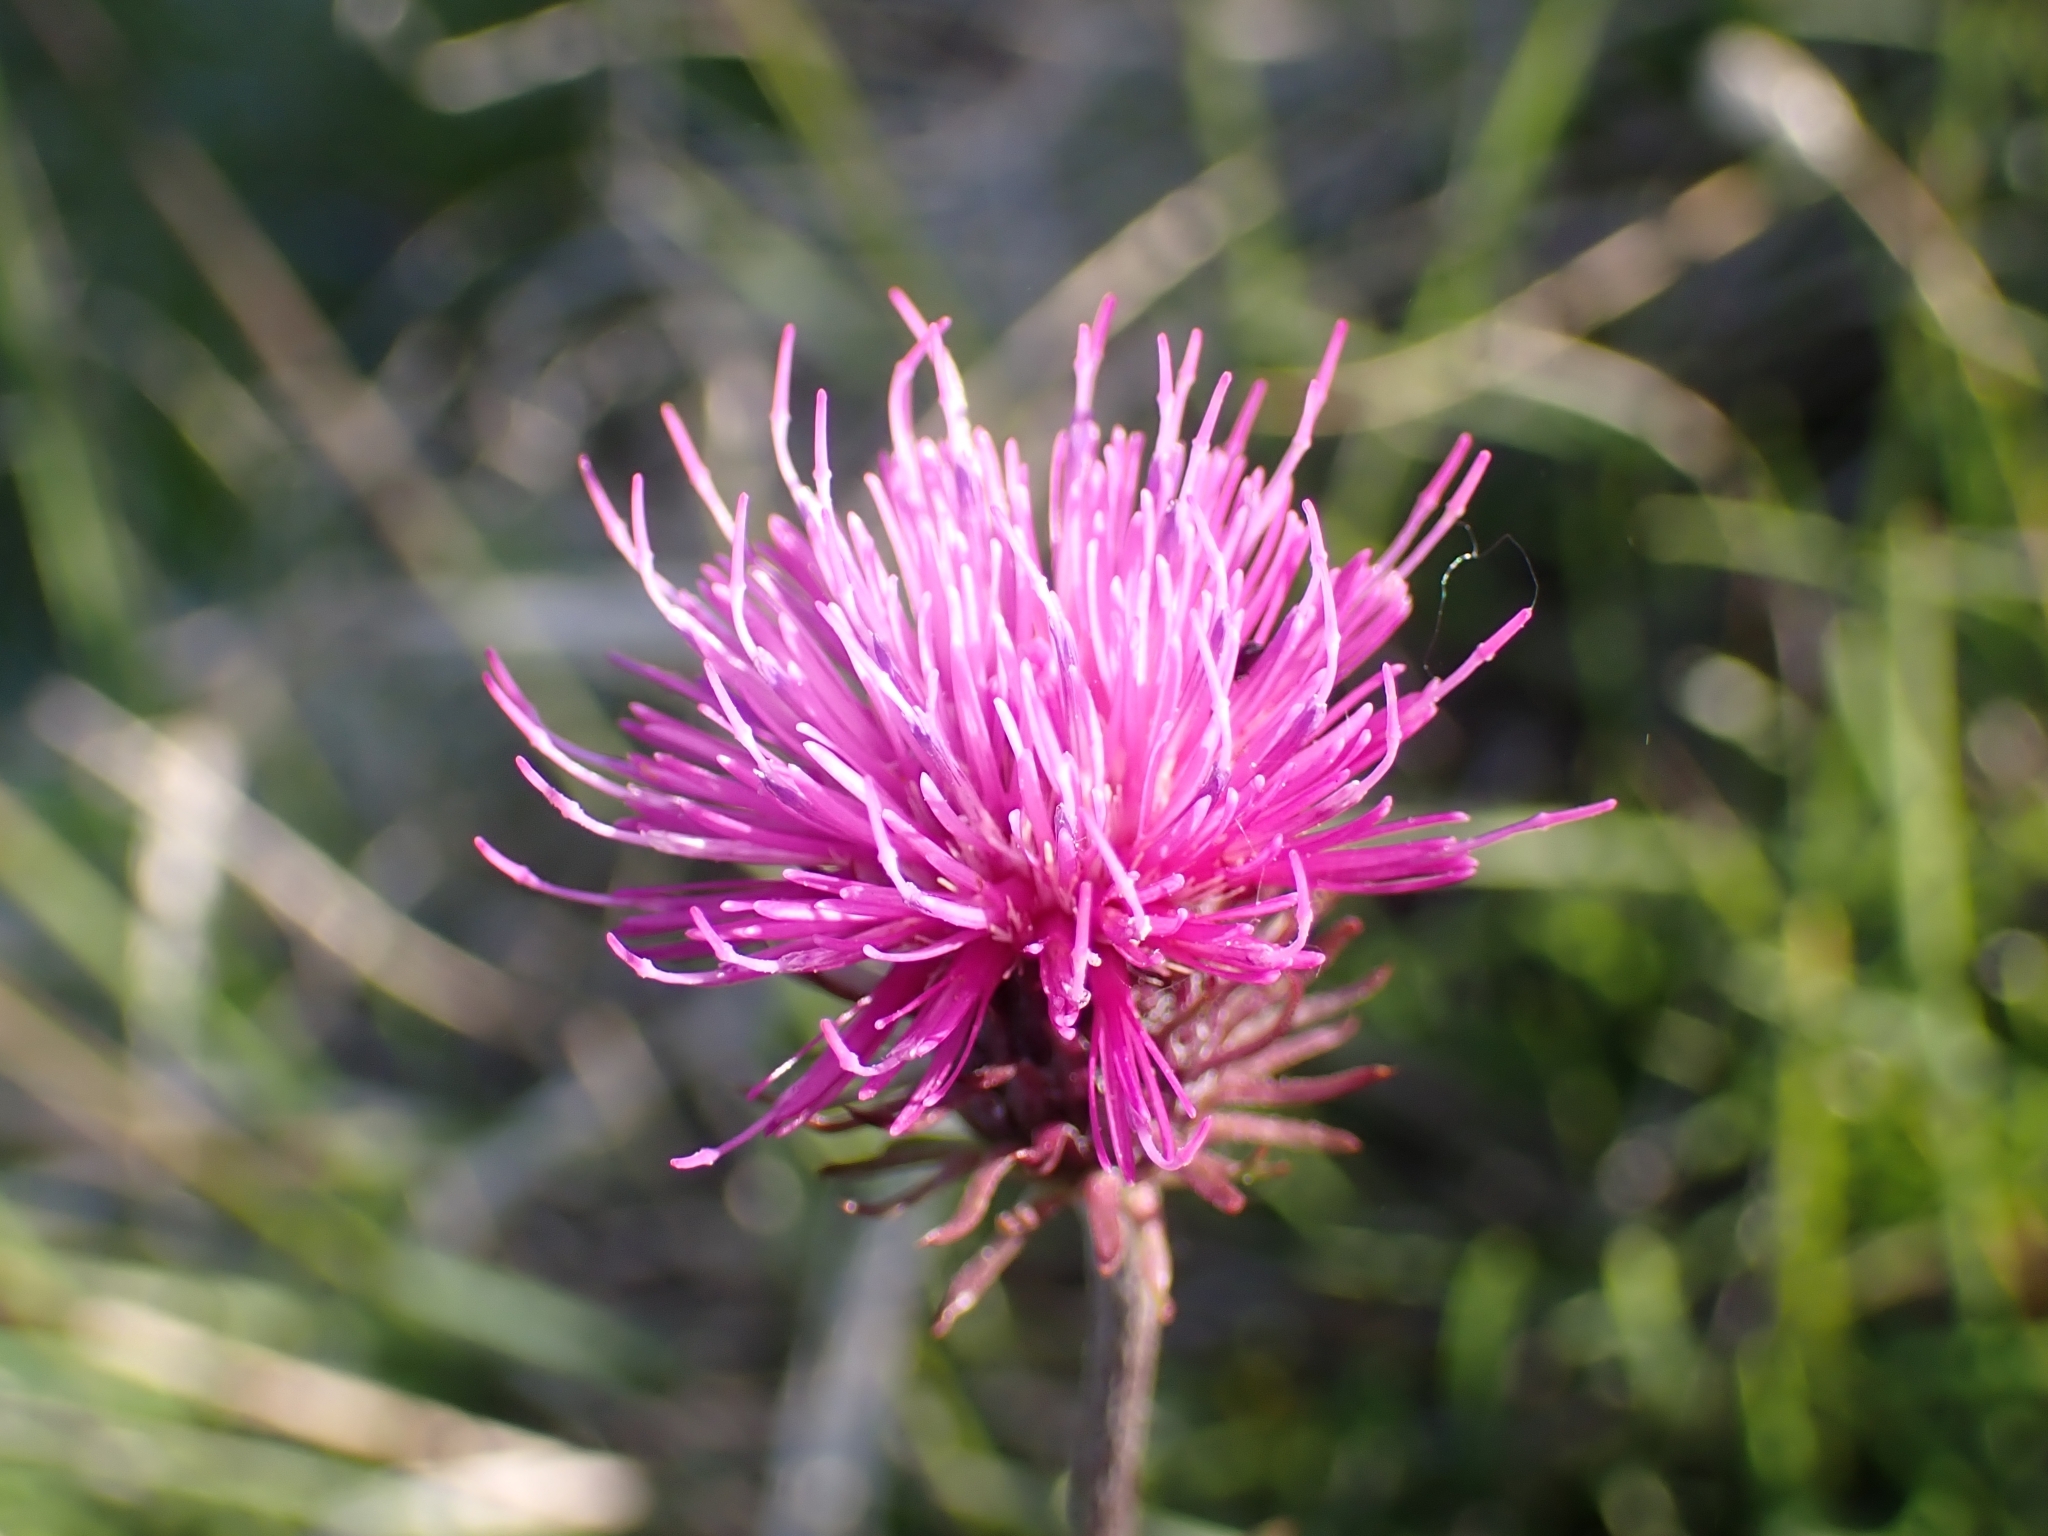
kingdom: Plantae
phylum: Tracheophyta
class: Magnoliopsida
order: Asterales
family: Asteraceae
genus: Carduus
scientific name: Carduus defloratus
